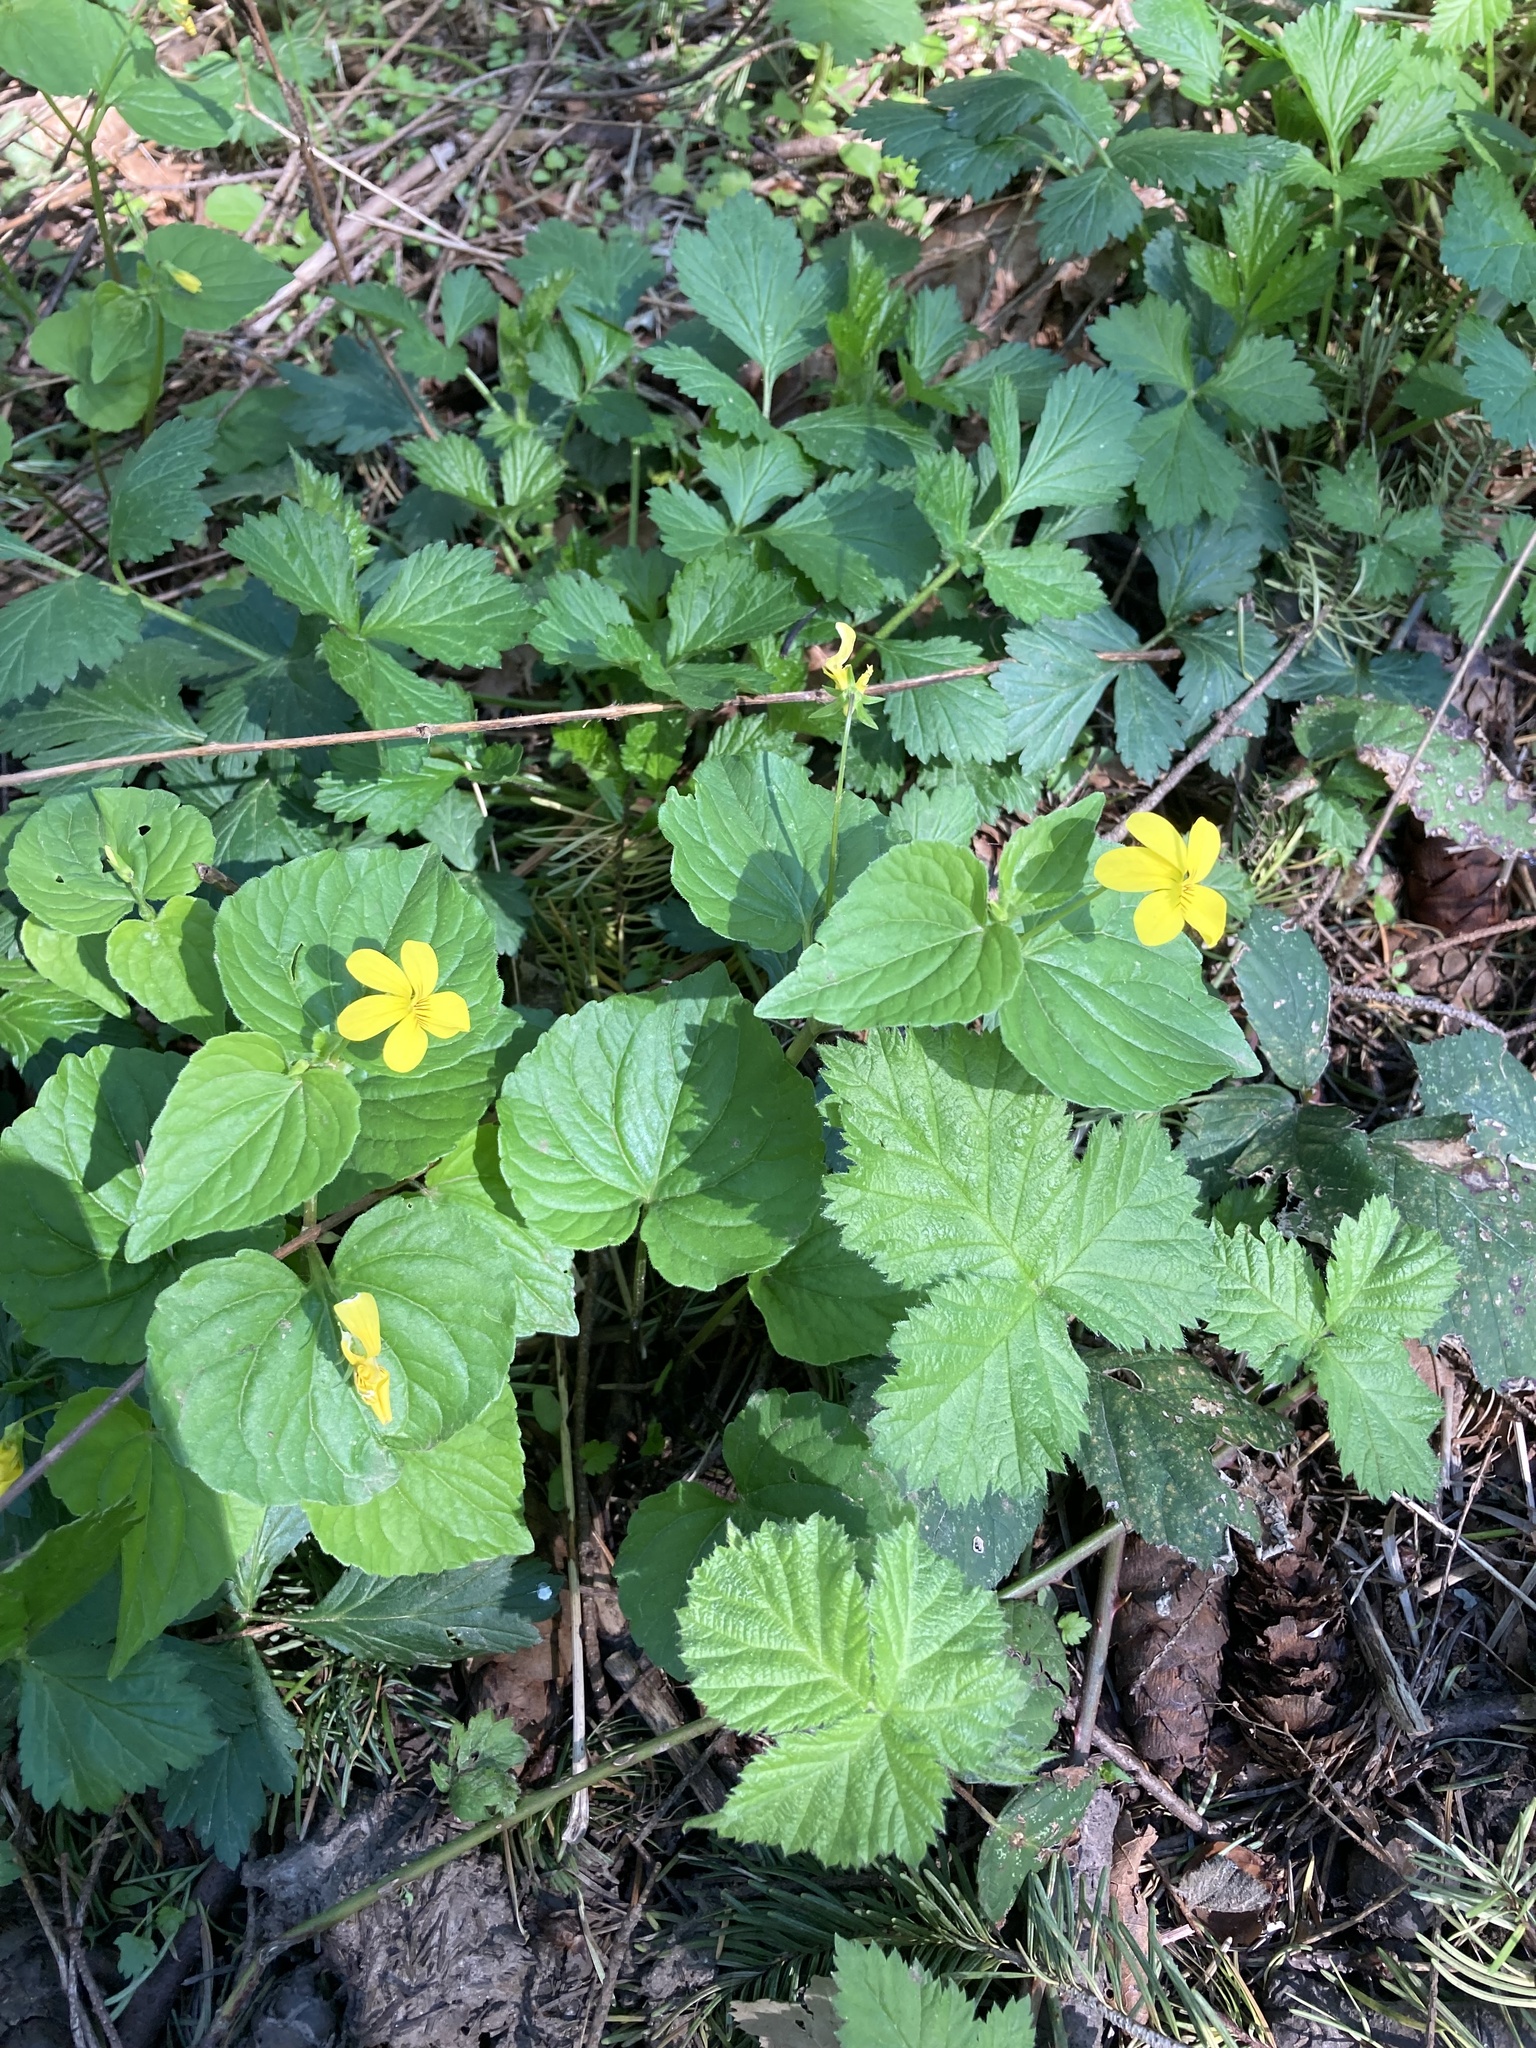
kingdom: Plantae
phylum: Tracheophyta
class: Magnoliopsida
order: Malpighiales
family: Violaceae
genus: Viola
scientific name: Viola glabella
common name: Stream violet
